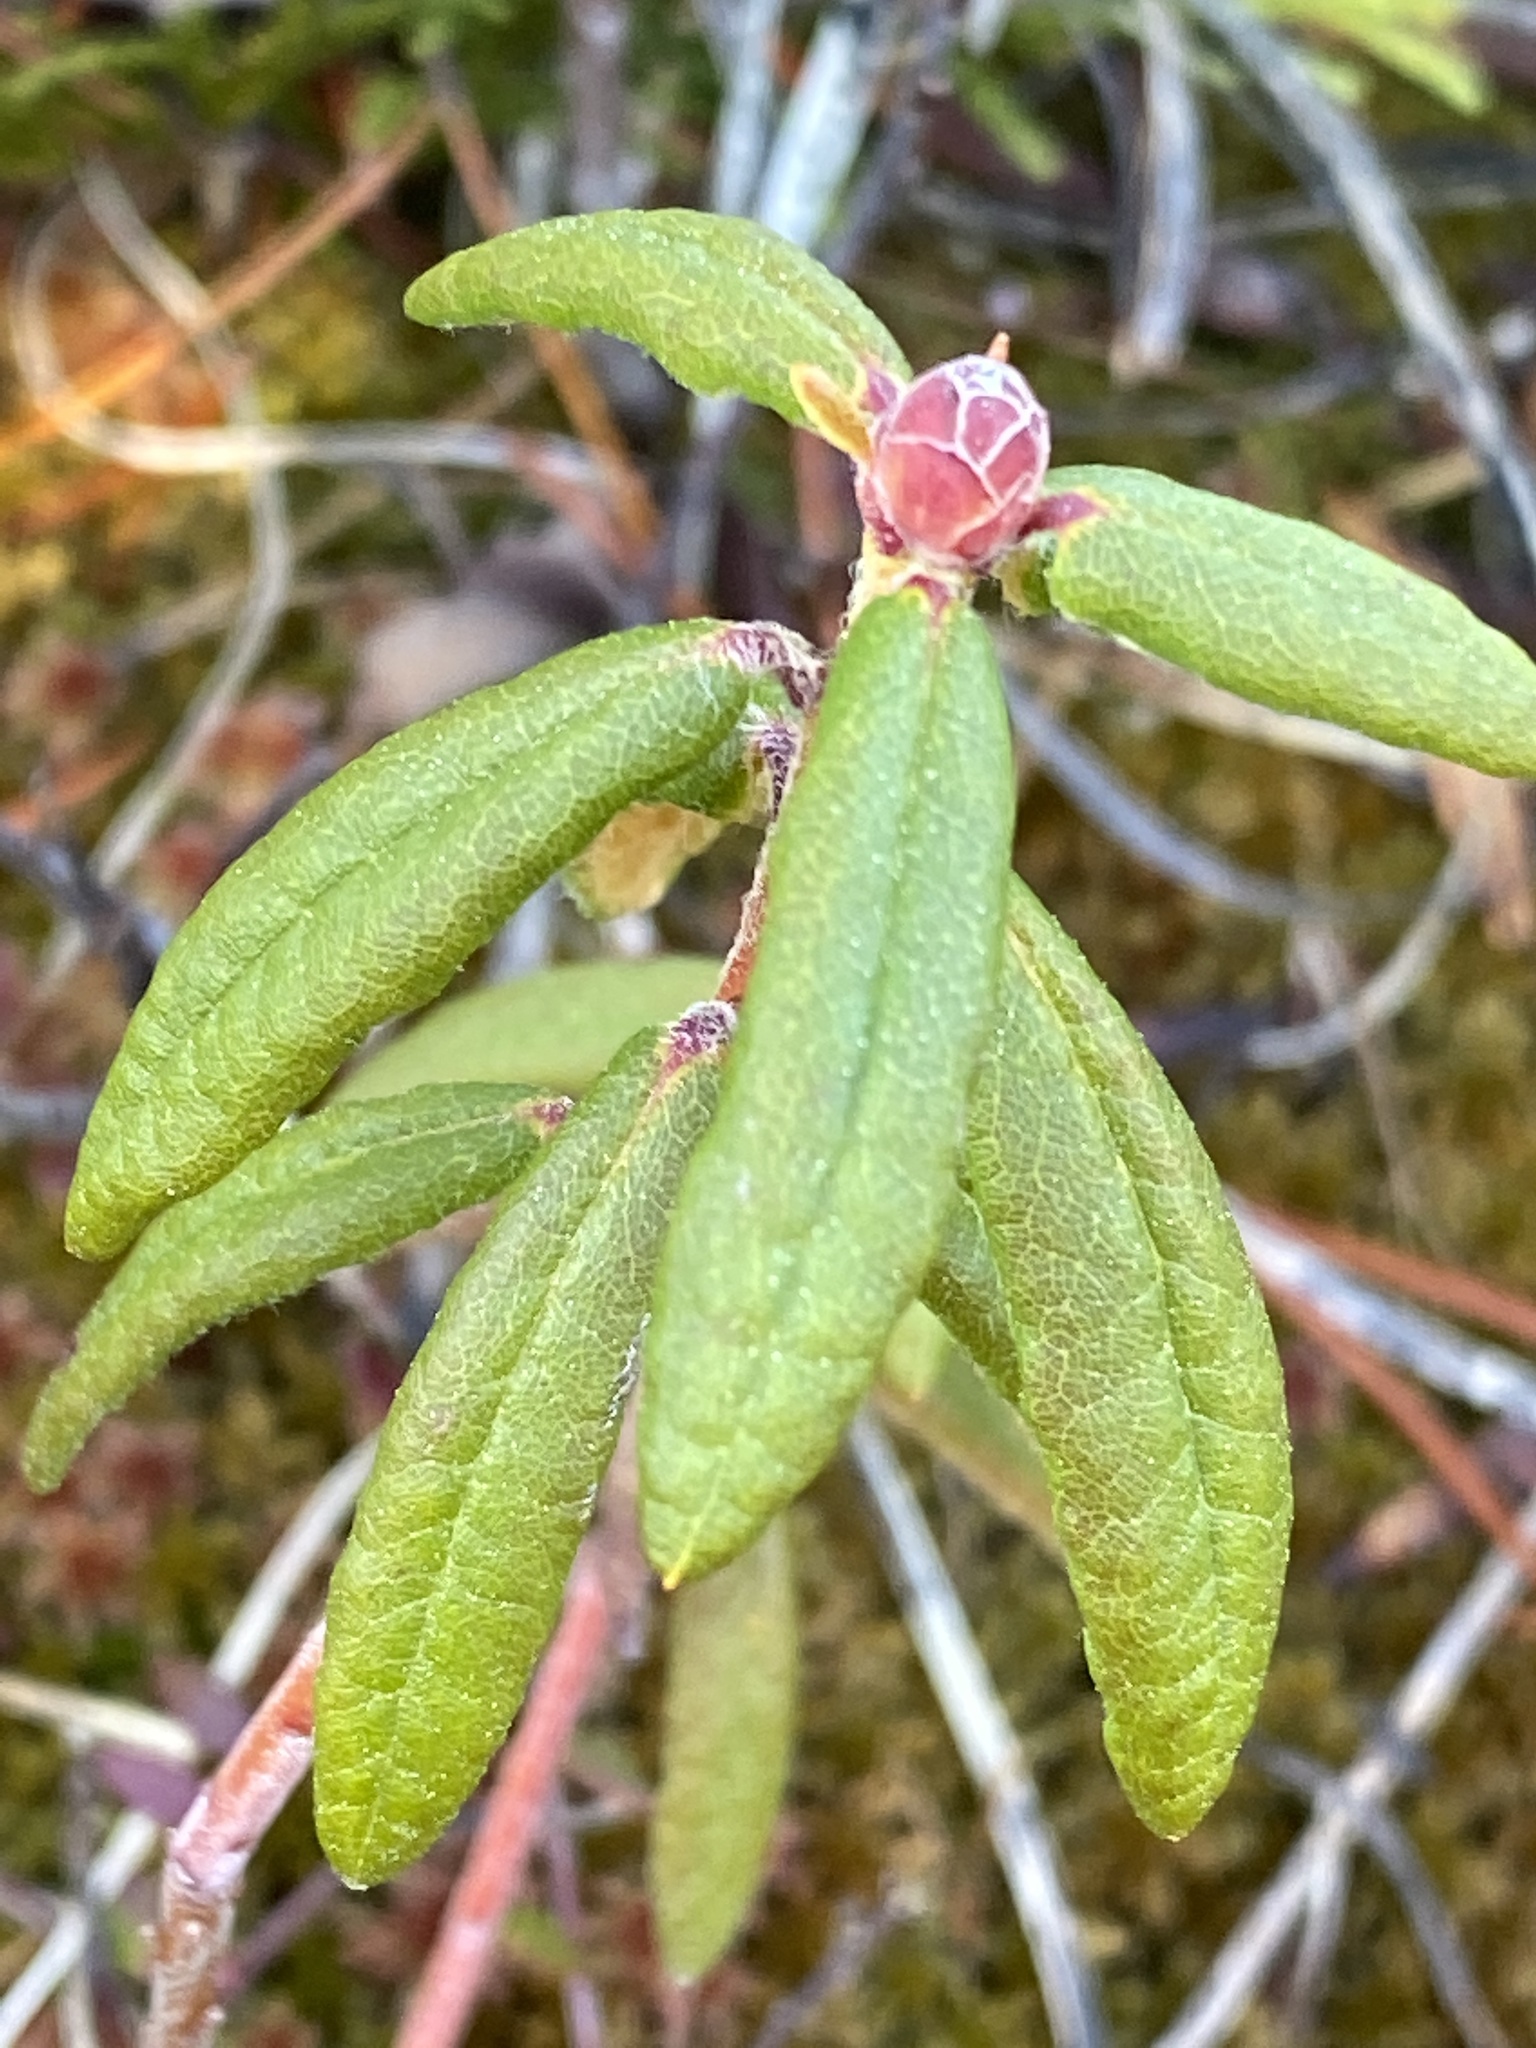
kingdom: Plantae
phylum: Tracheophyta
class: Magnoliopsida
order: Ericales
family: Ericaceae
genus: Rhododendron
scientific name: Rhododendron groenlandicum
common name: Bog labrador tea
